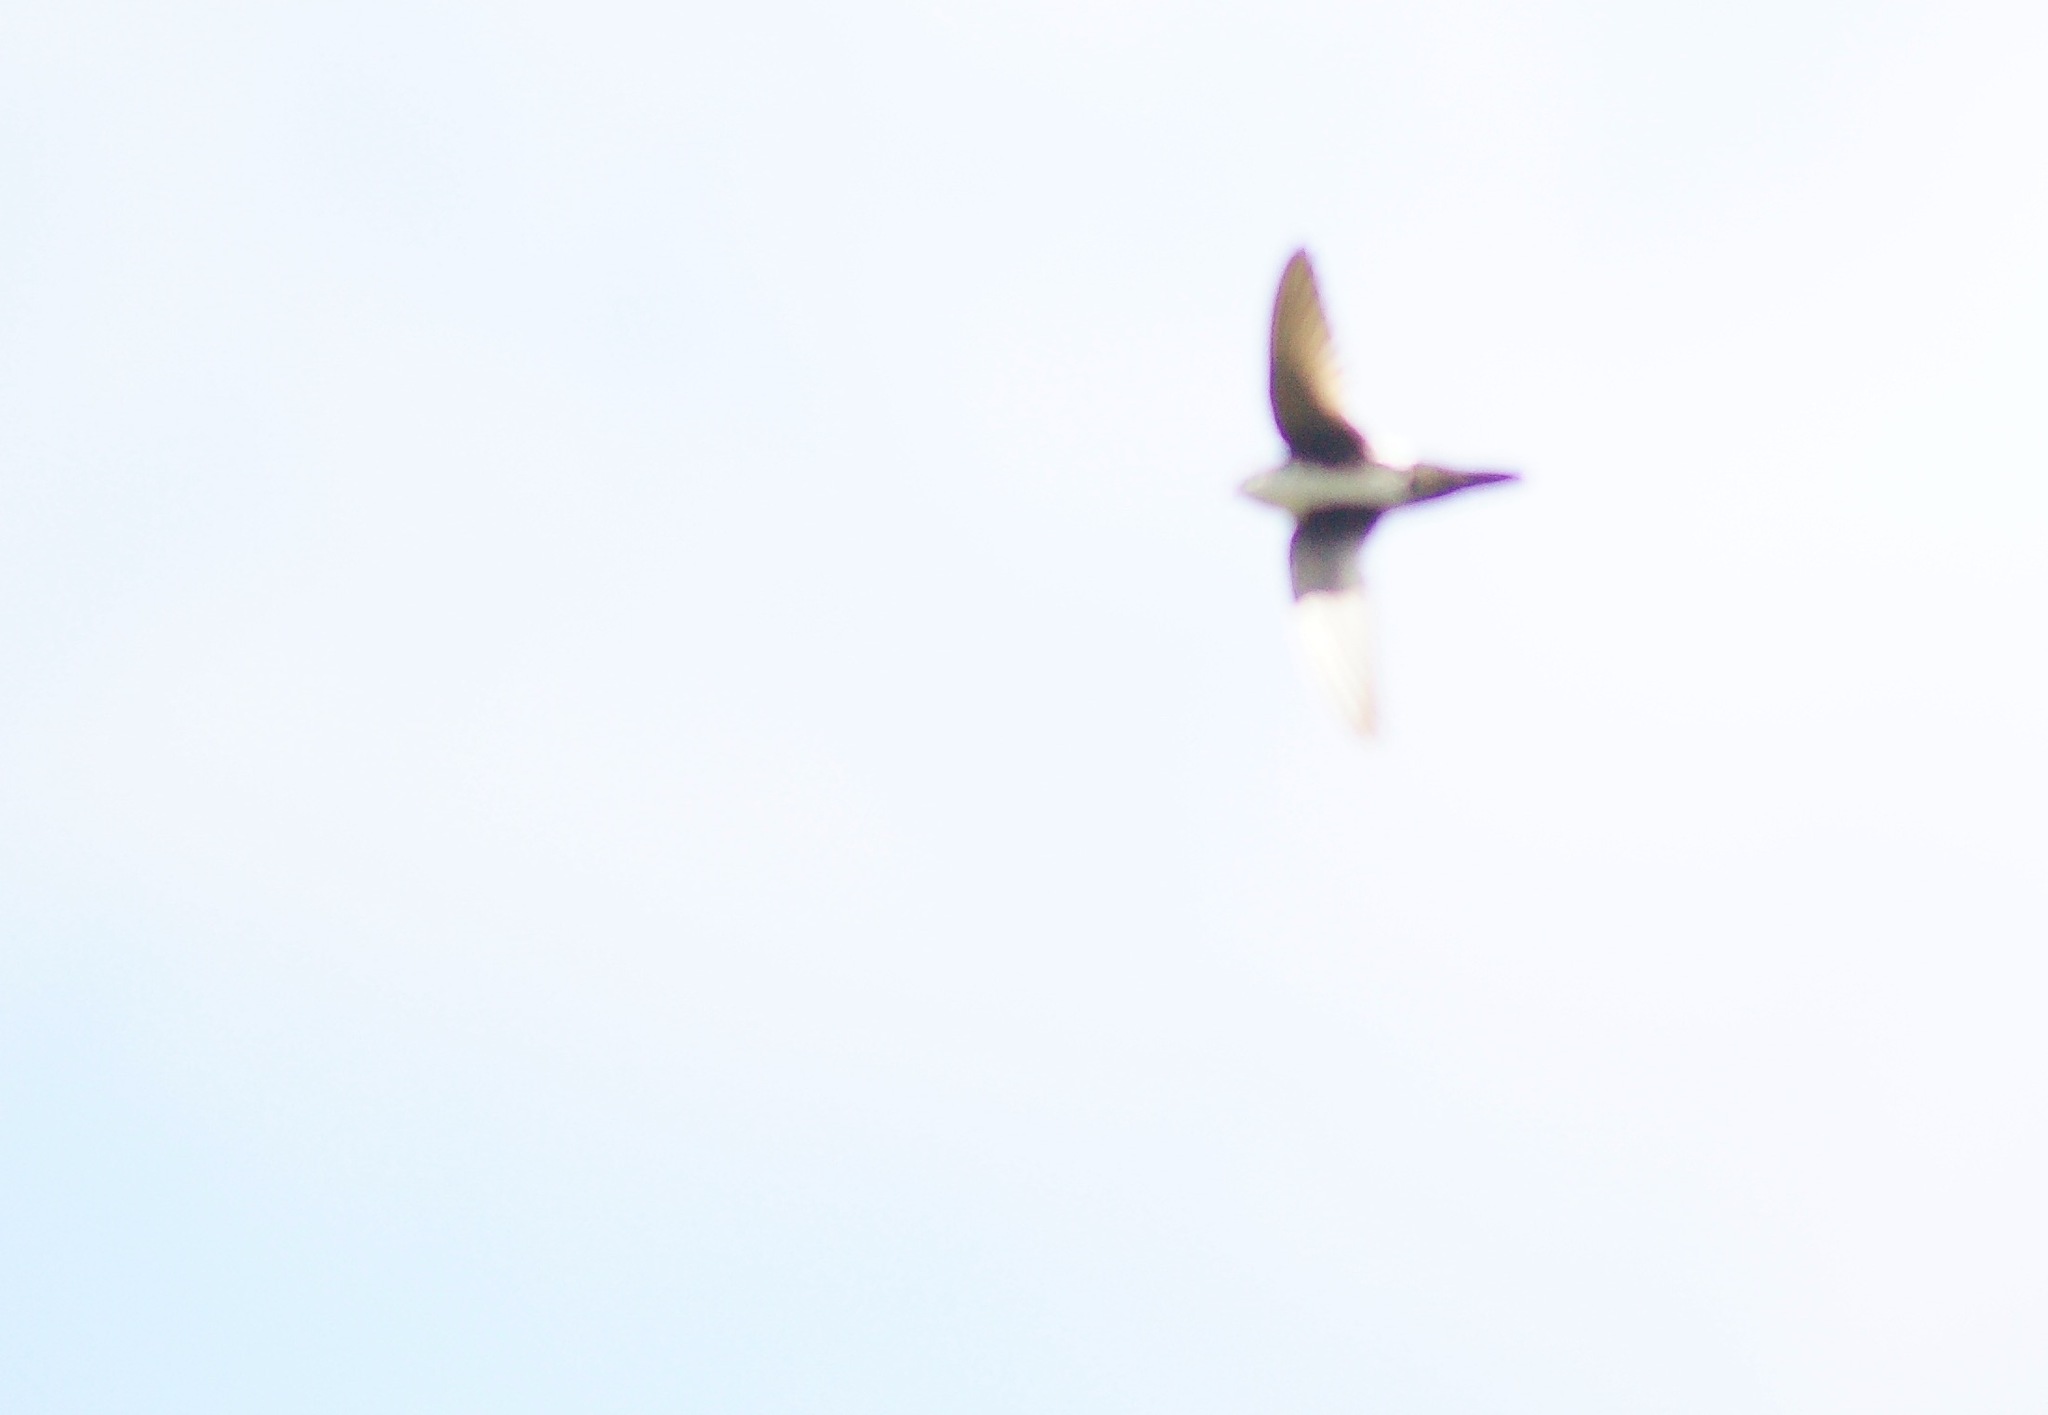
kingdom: Animalia
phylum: Chordata
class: Aves
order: Apodiformes
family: Apodidae
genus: Aeronautes
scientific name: Aeronautes saxatalis
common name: White-throated swift
